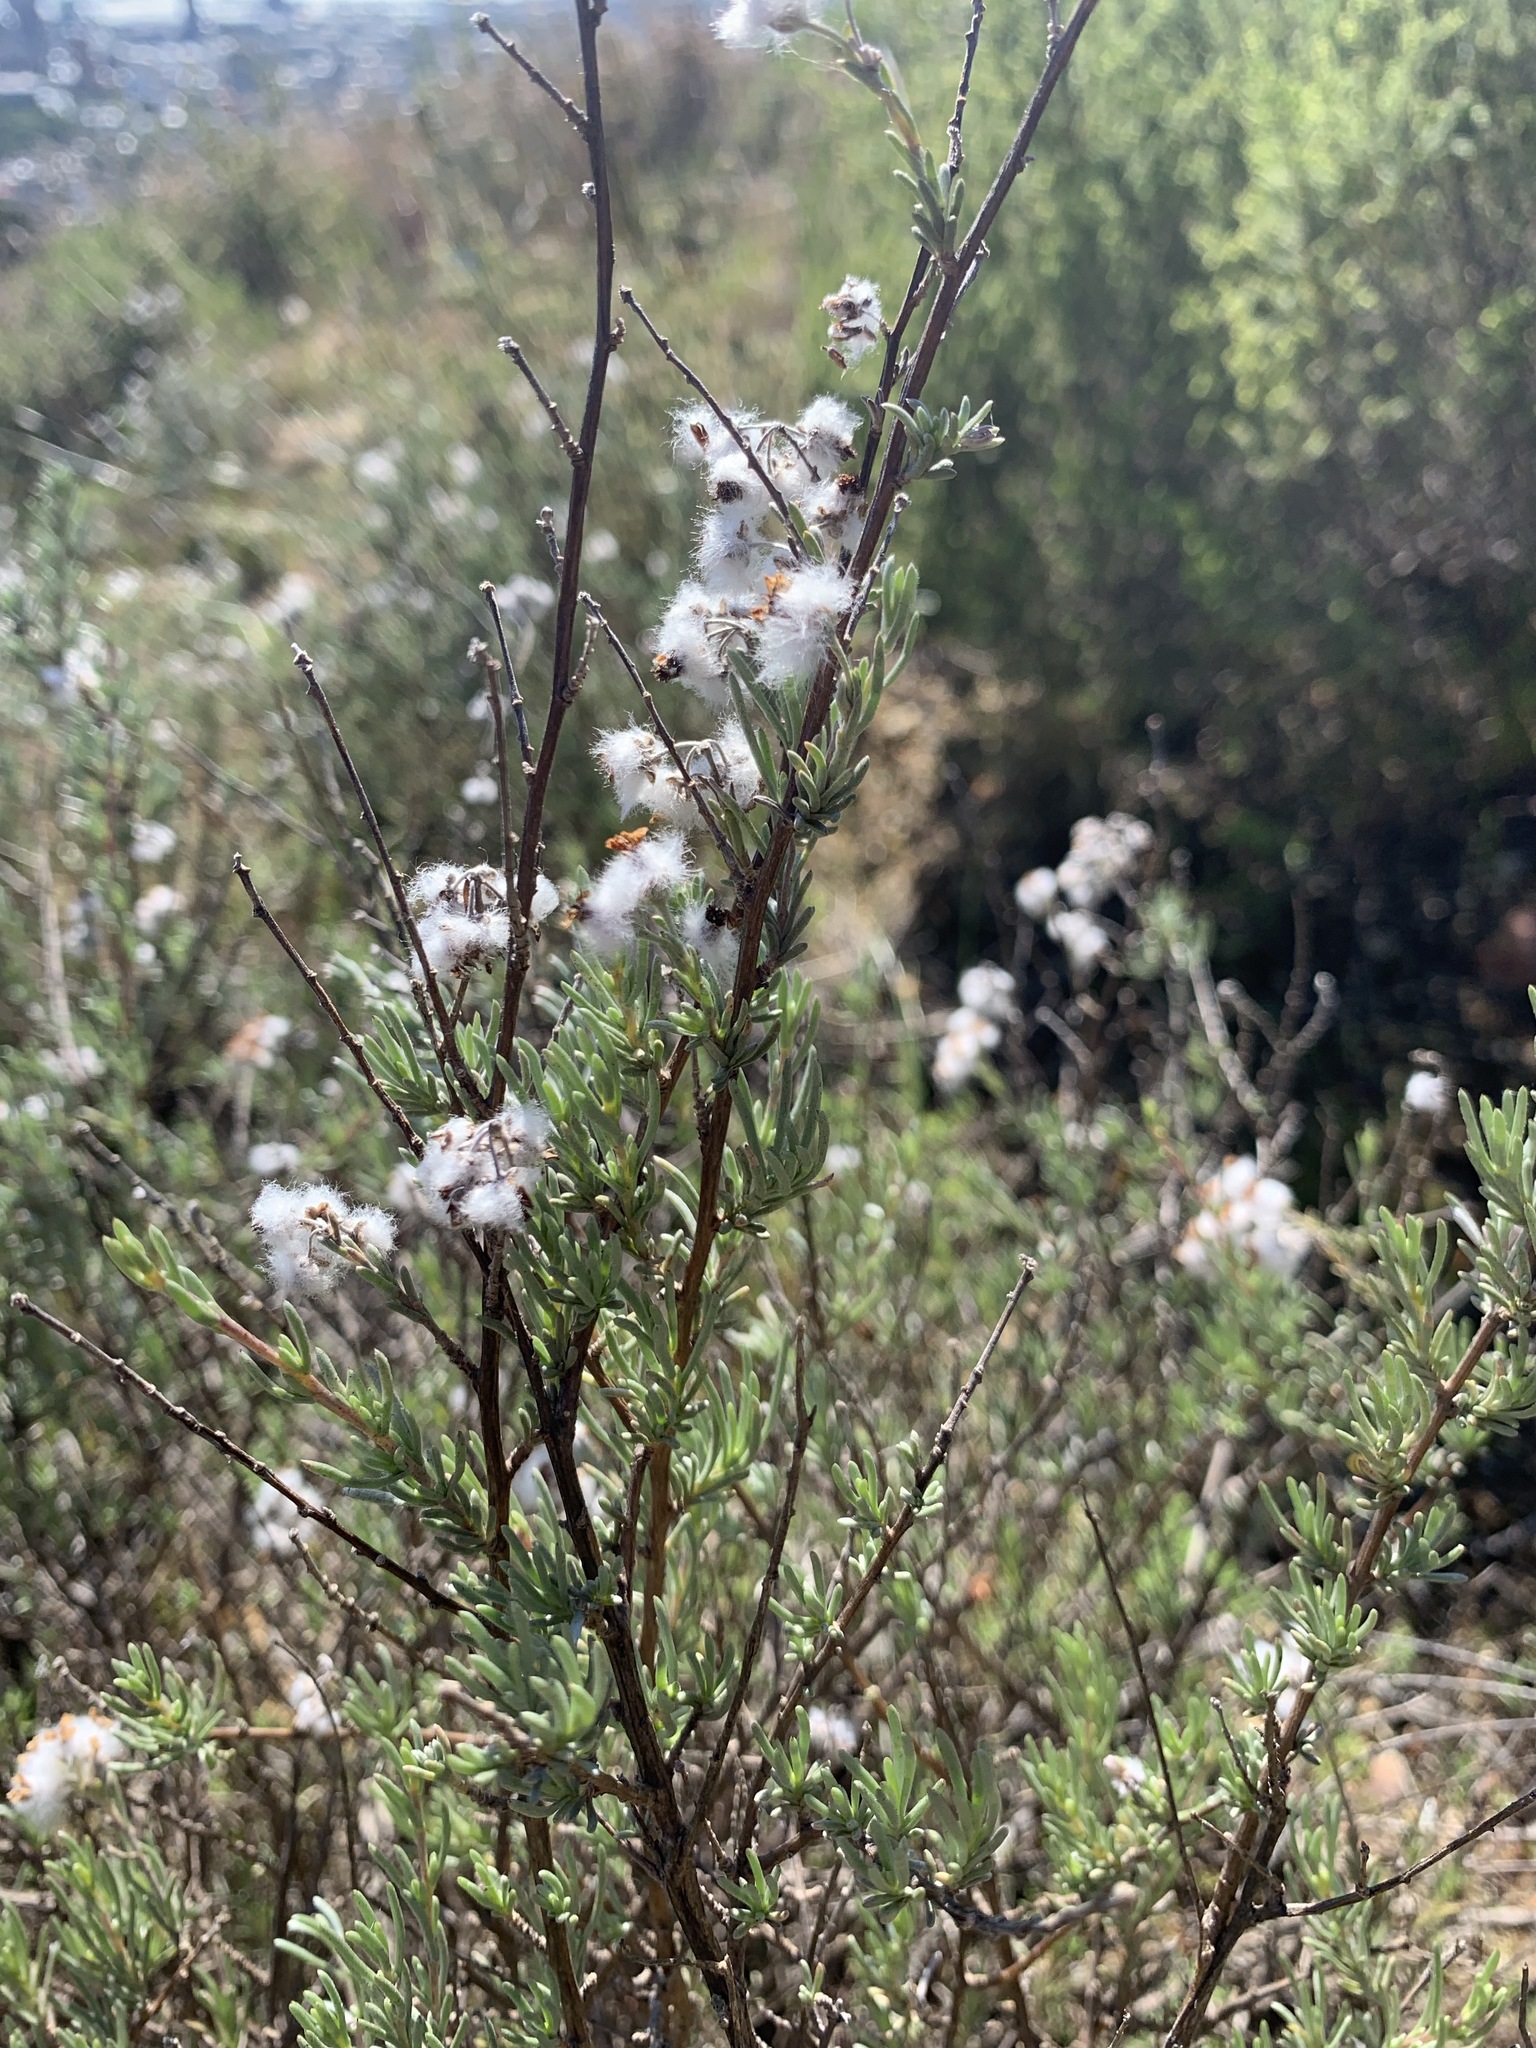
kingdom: Plantae
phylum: Tracheophyta
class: Magnoliopsida
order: Asterales
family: Asteraceae
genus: Eriocephalus
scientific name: Eriocephalus africanus
